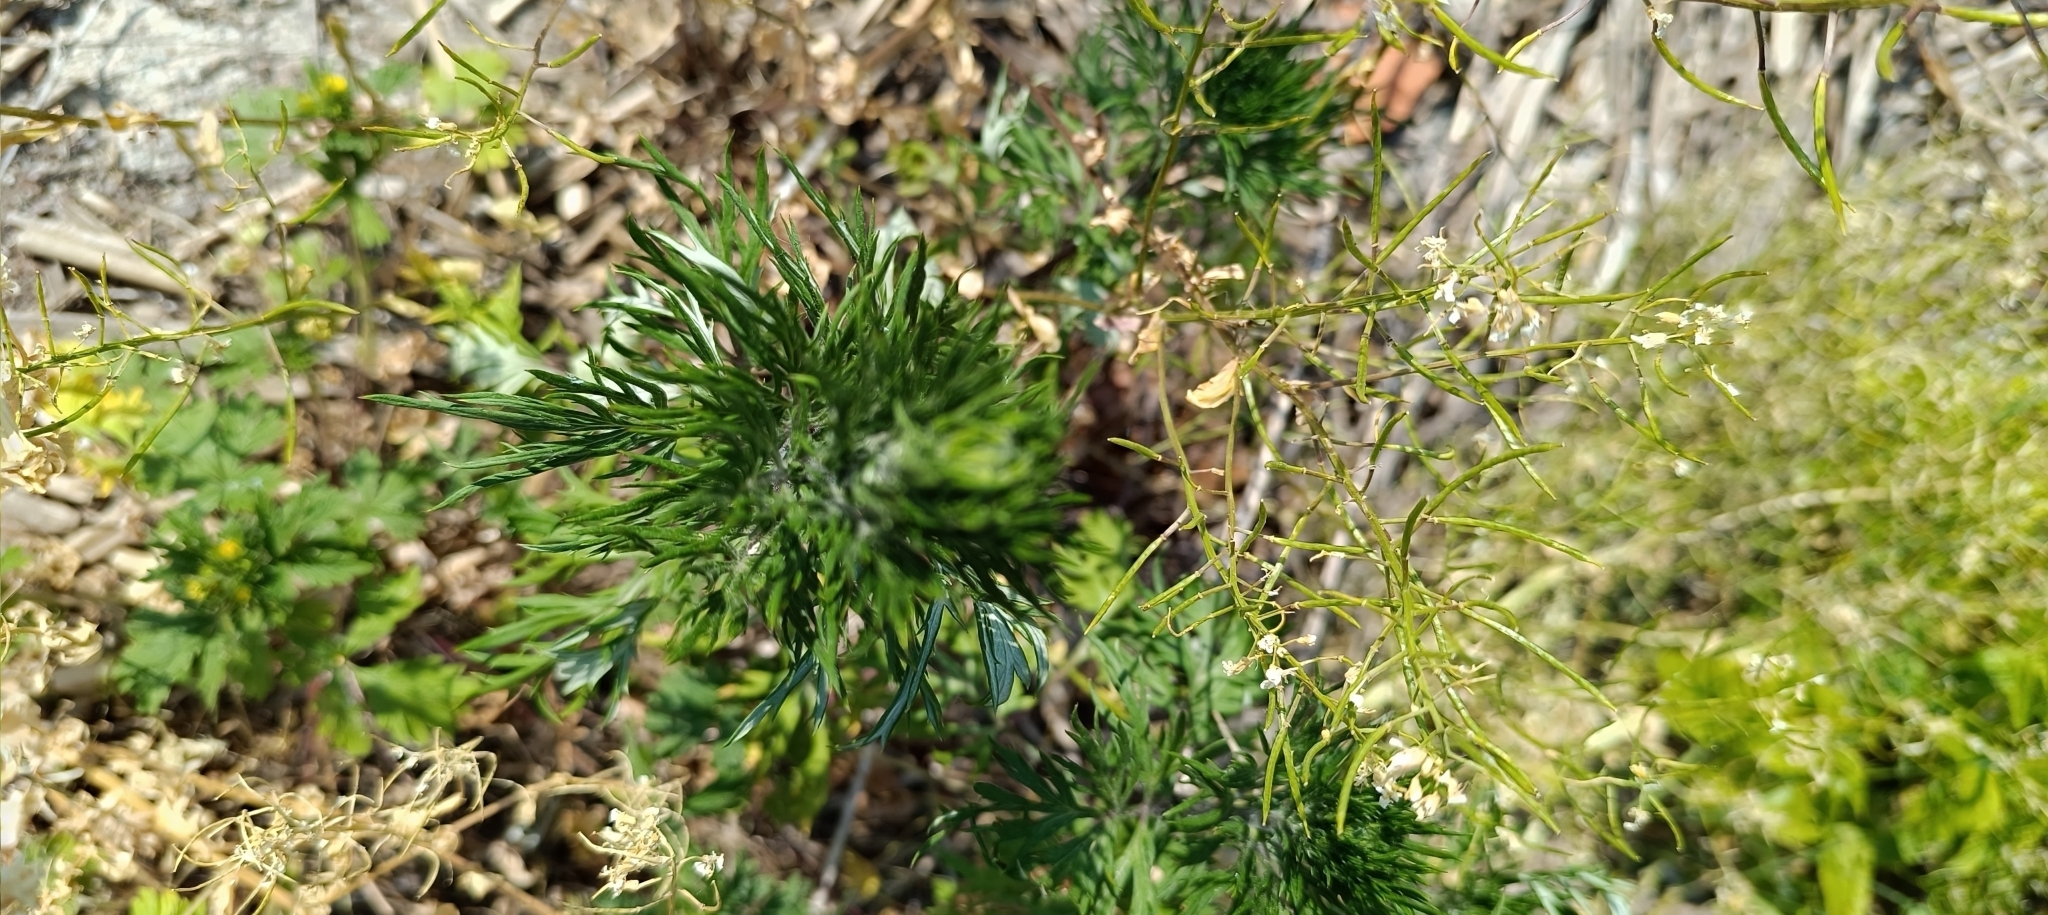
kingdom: Plantae
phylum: Tracheophyta
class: Magnoliopsida
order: Brassicales
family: Brassicaceae
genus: Barbarea
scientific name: Barbarea vulgaris
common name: Cressy-greens
